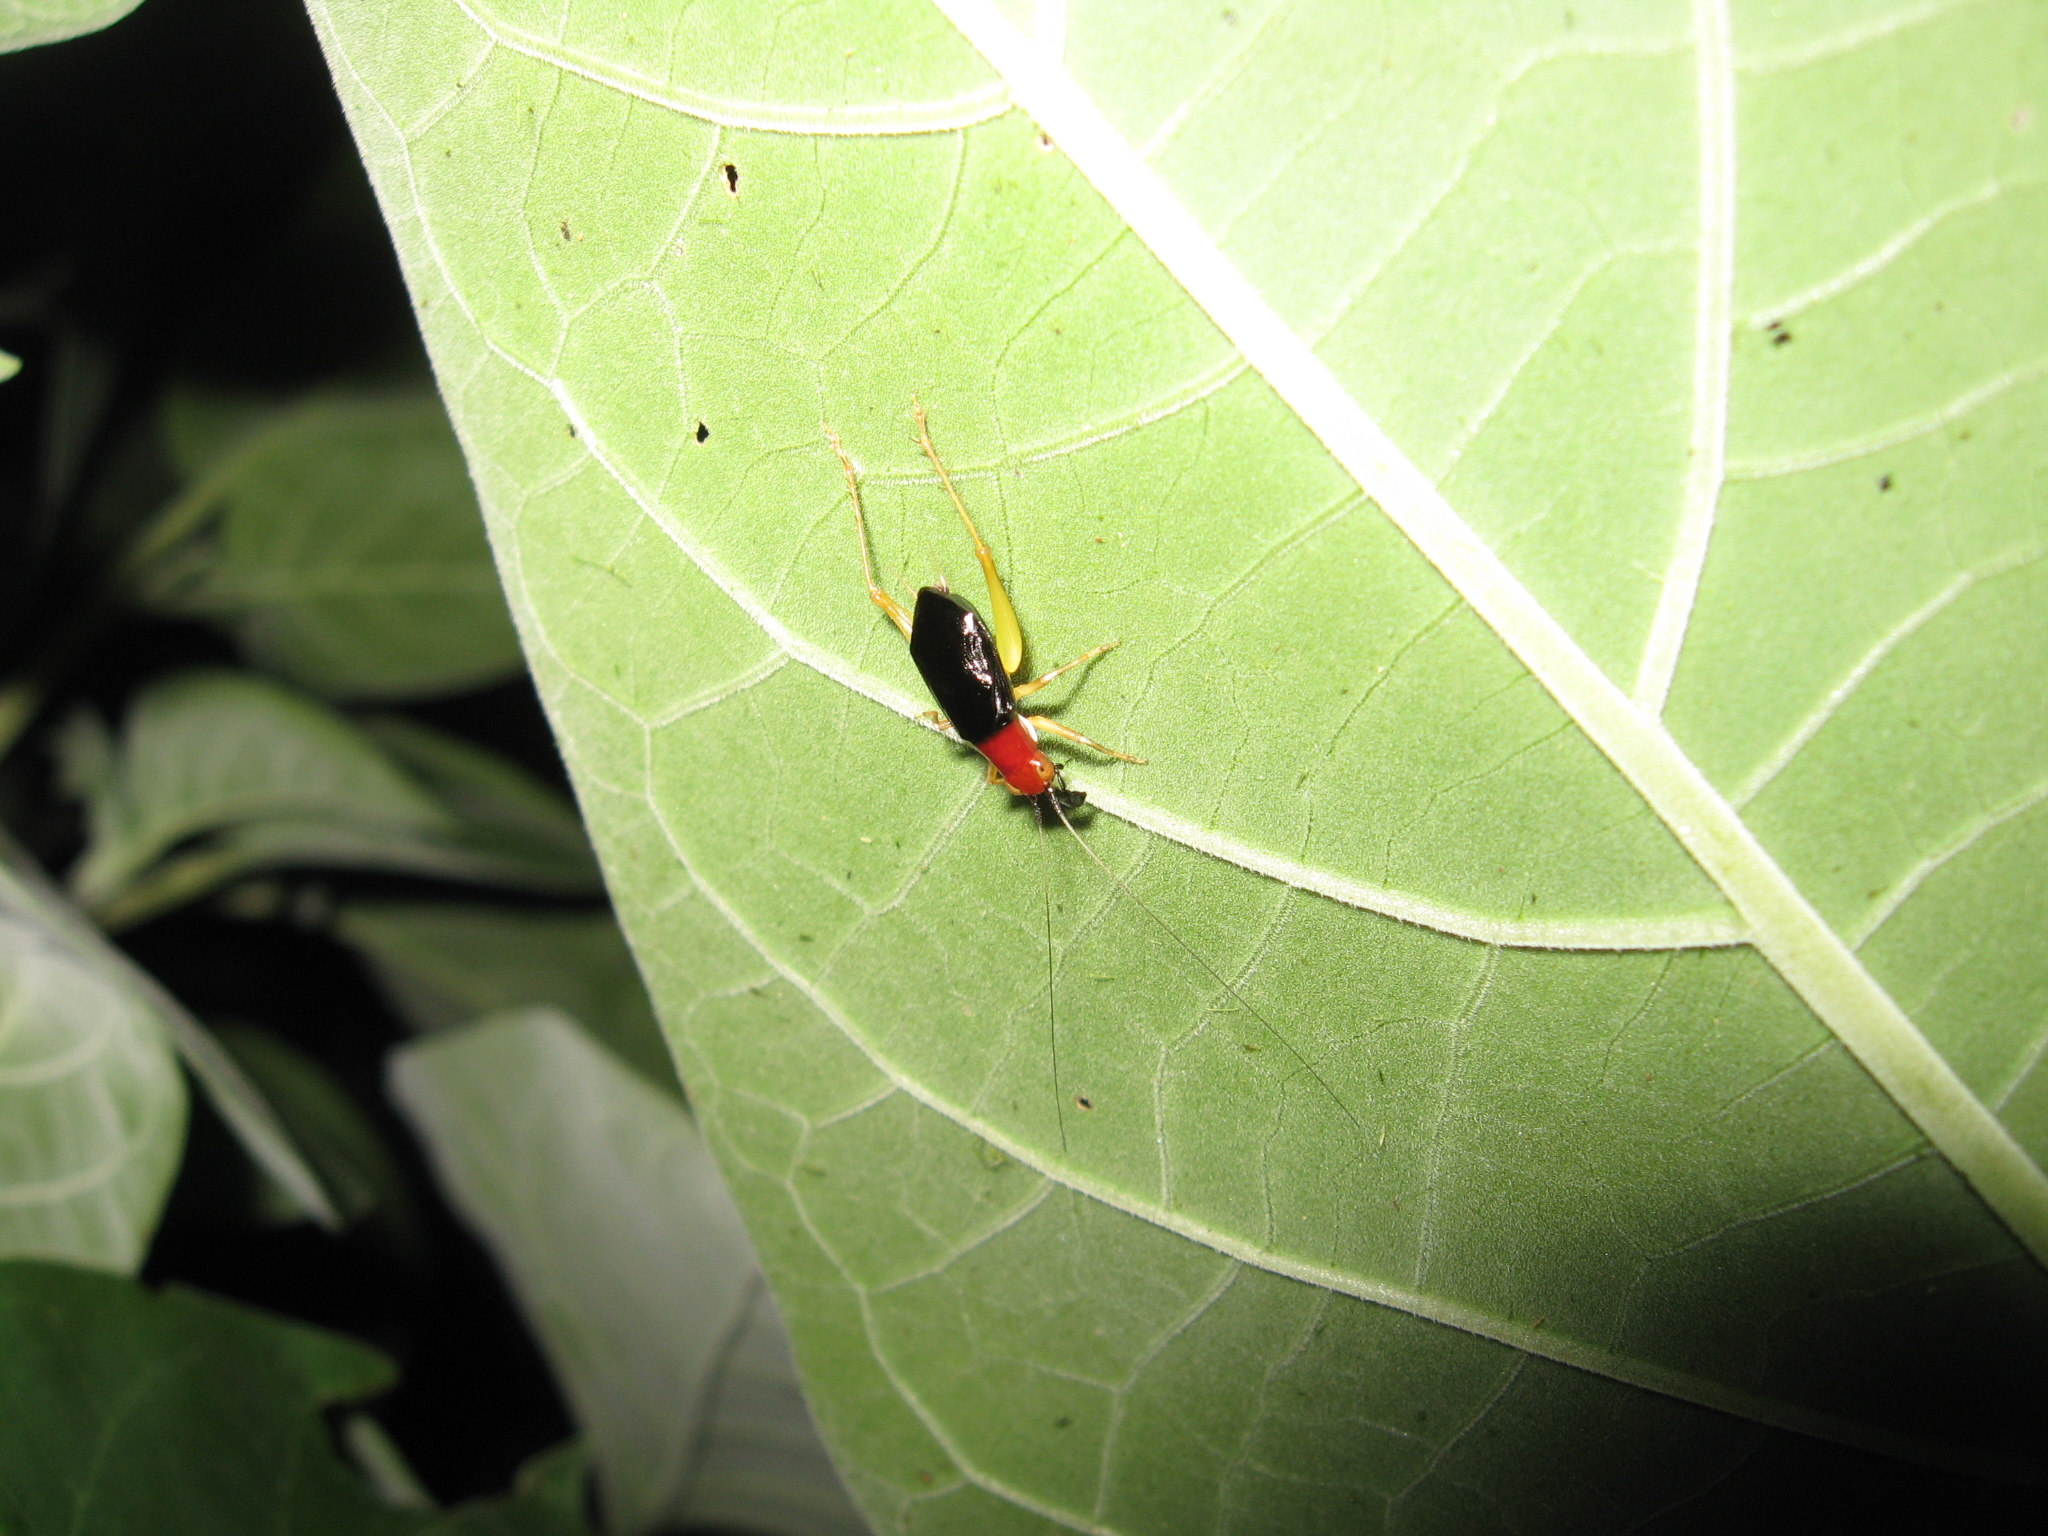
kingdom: Animalia
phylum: Arthropoda
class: Insecta
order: Orthoptera
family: Trigonidiidae
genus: Phyllopalpus
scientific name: Phyllopalpus pulchellus
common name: Handsome trig
